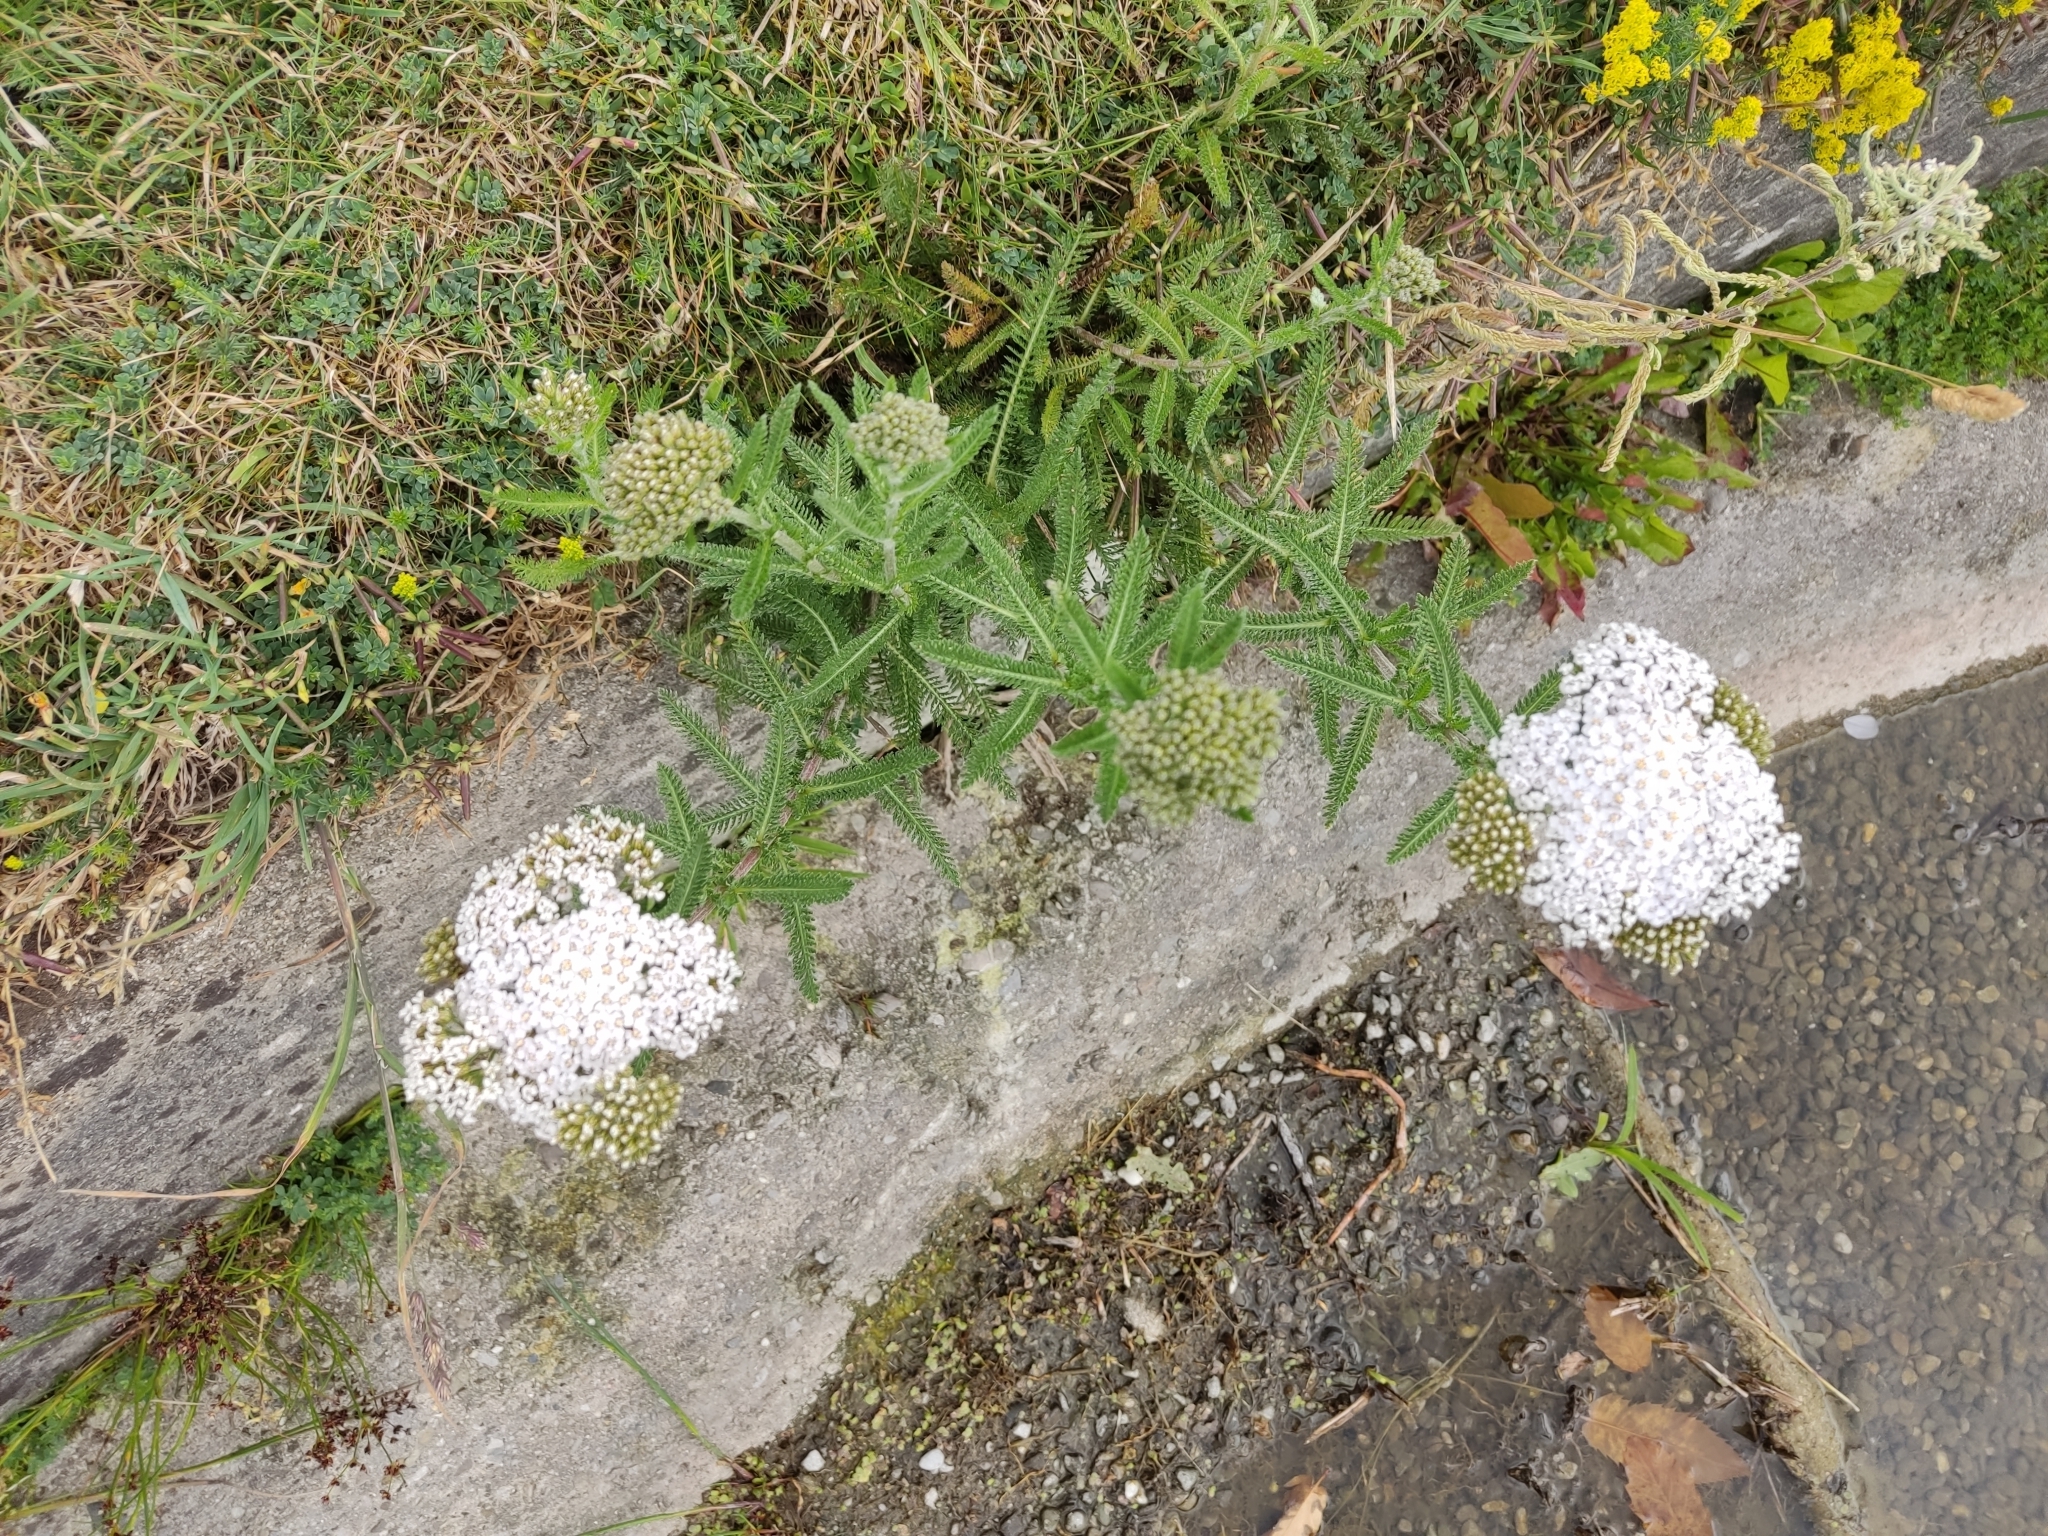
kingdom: Plantae
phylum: Tracheophyta
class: Magnoliopsida
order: Asterales
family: Asteraceae
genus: Achillea
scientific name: Achillea millefolium
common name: Yarrow
